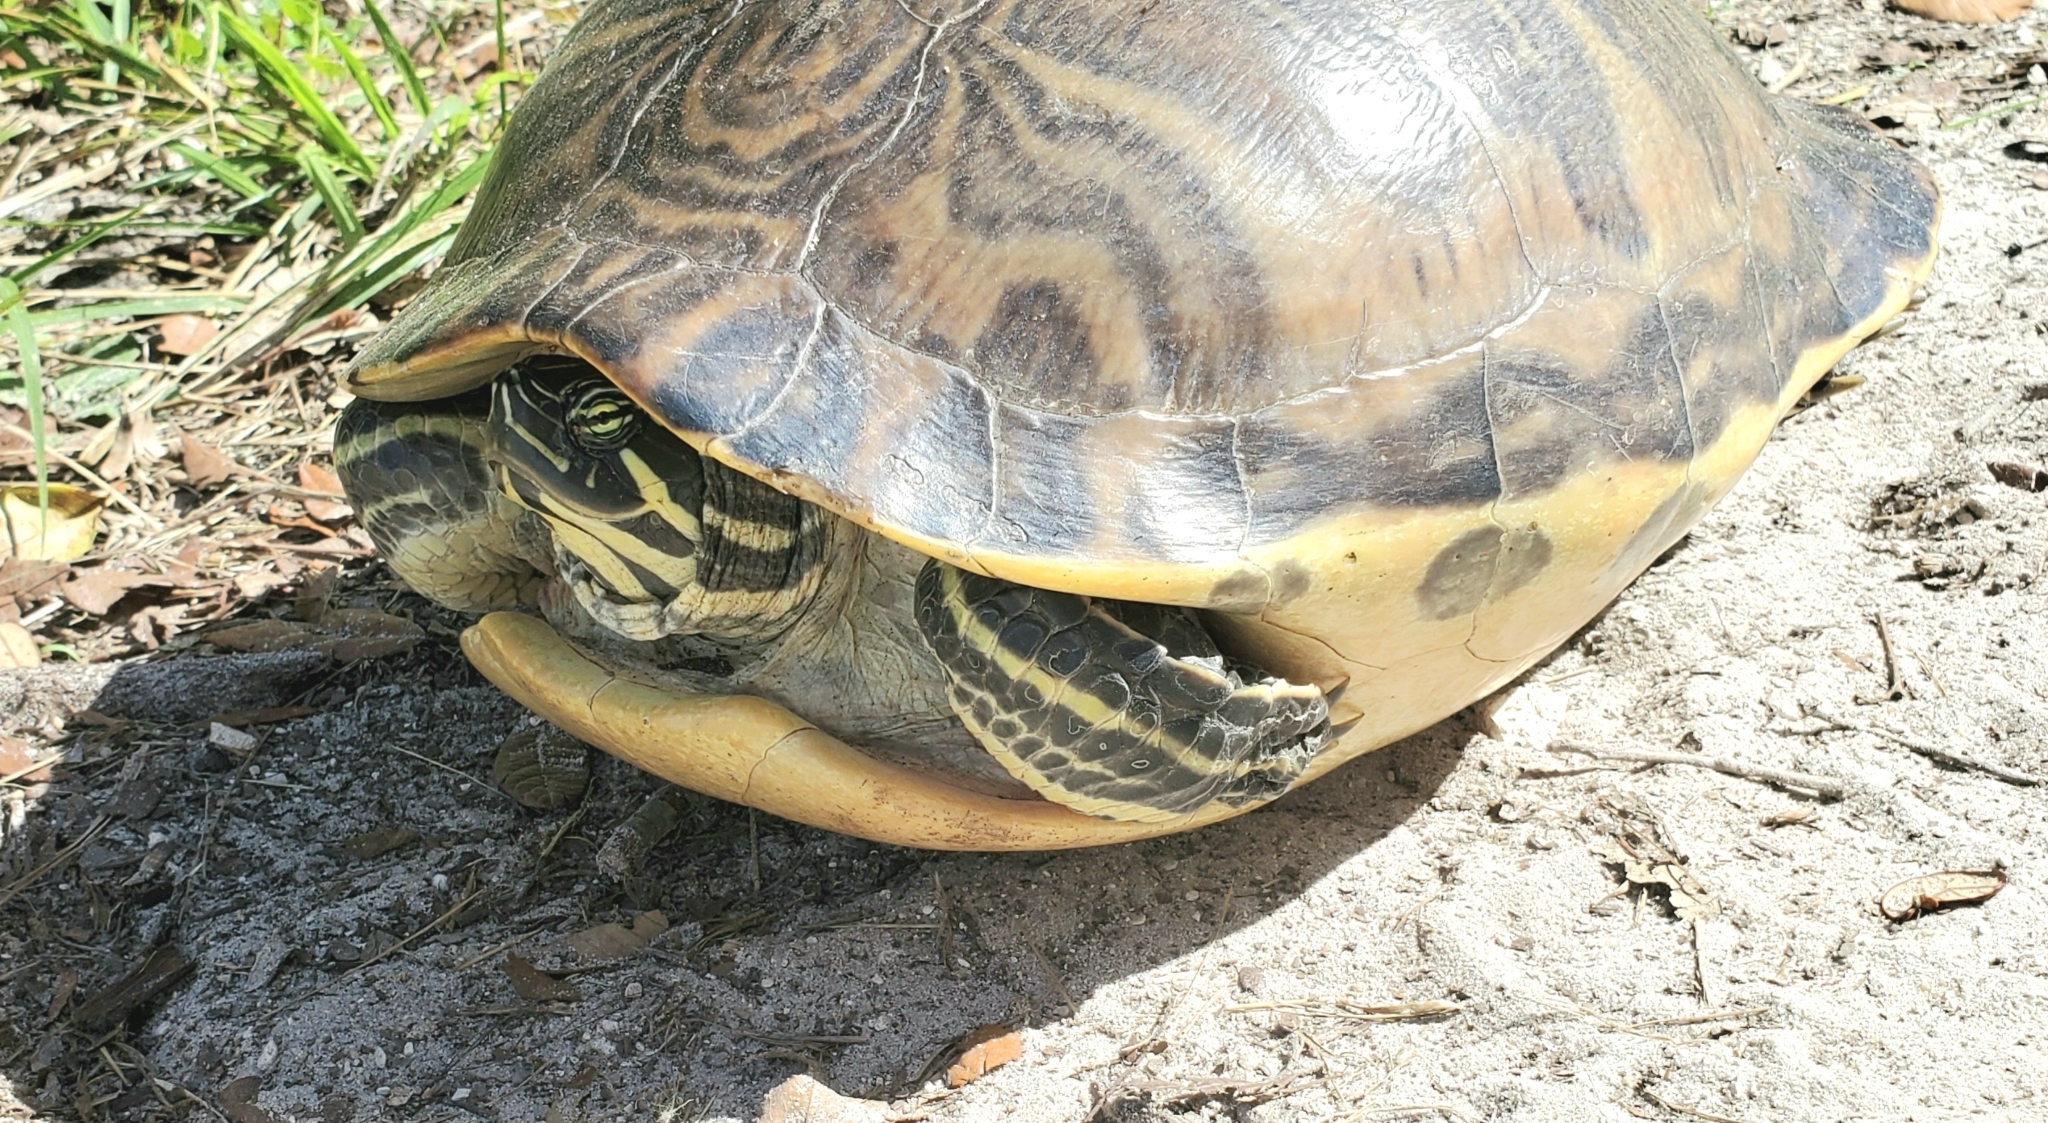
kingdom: Animalia
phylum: Chordata
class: Testudines
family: Emydidae
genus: Pseudemys
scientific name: Pseudemys peninsularis
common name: Peninsula cooter
